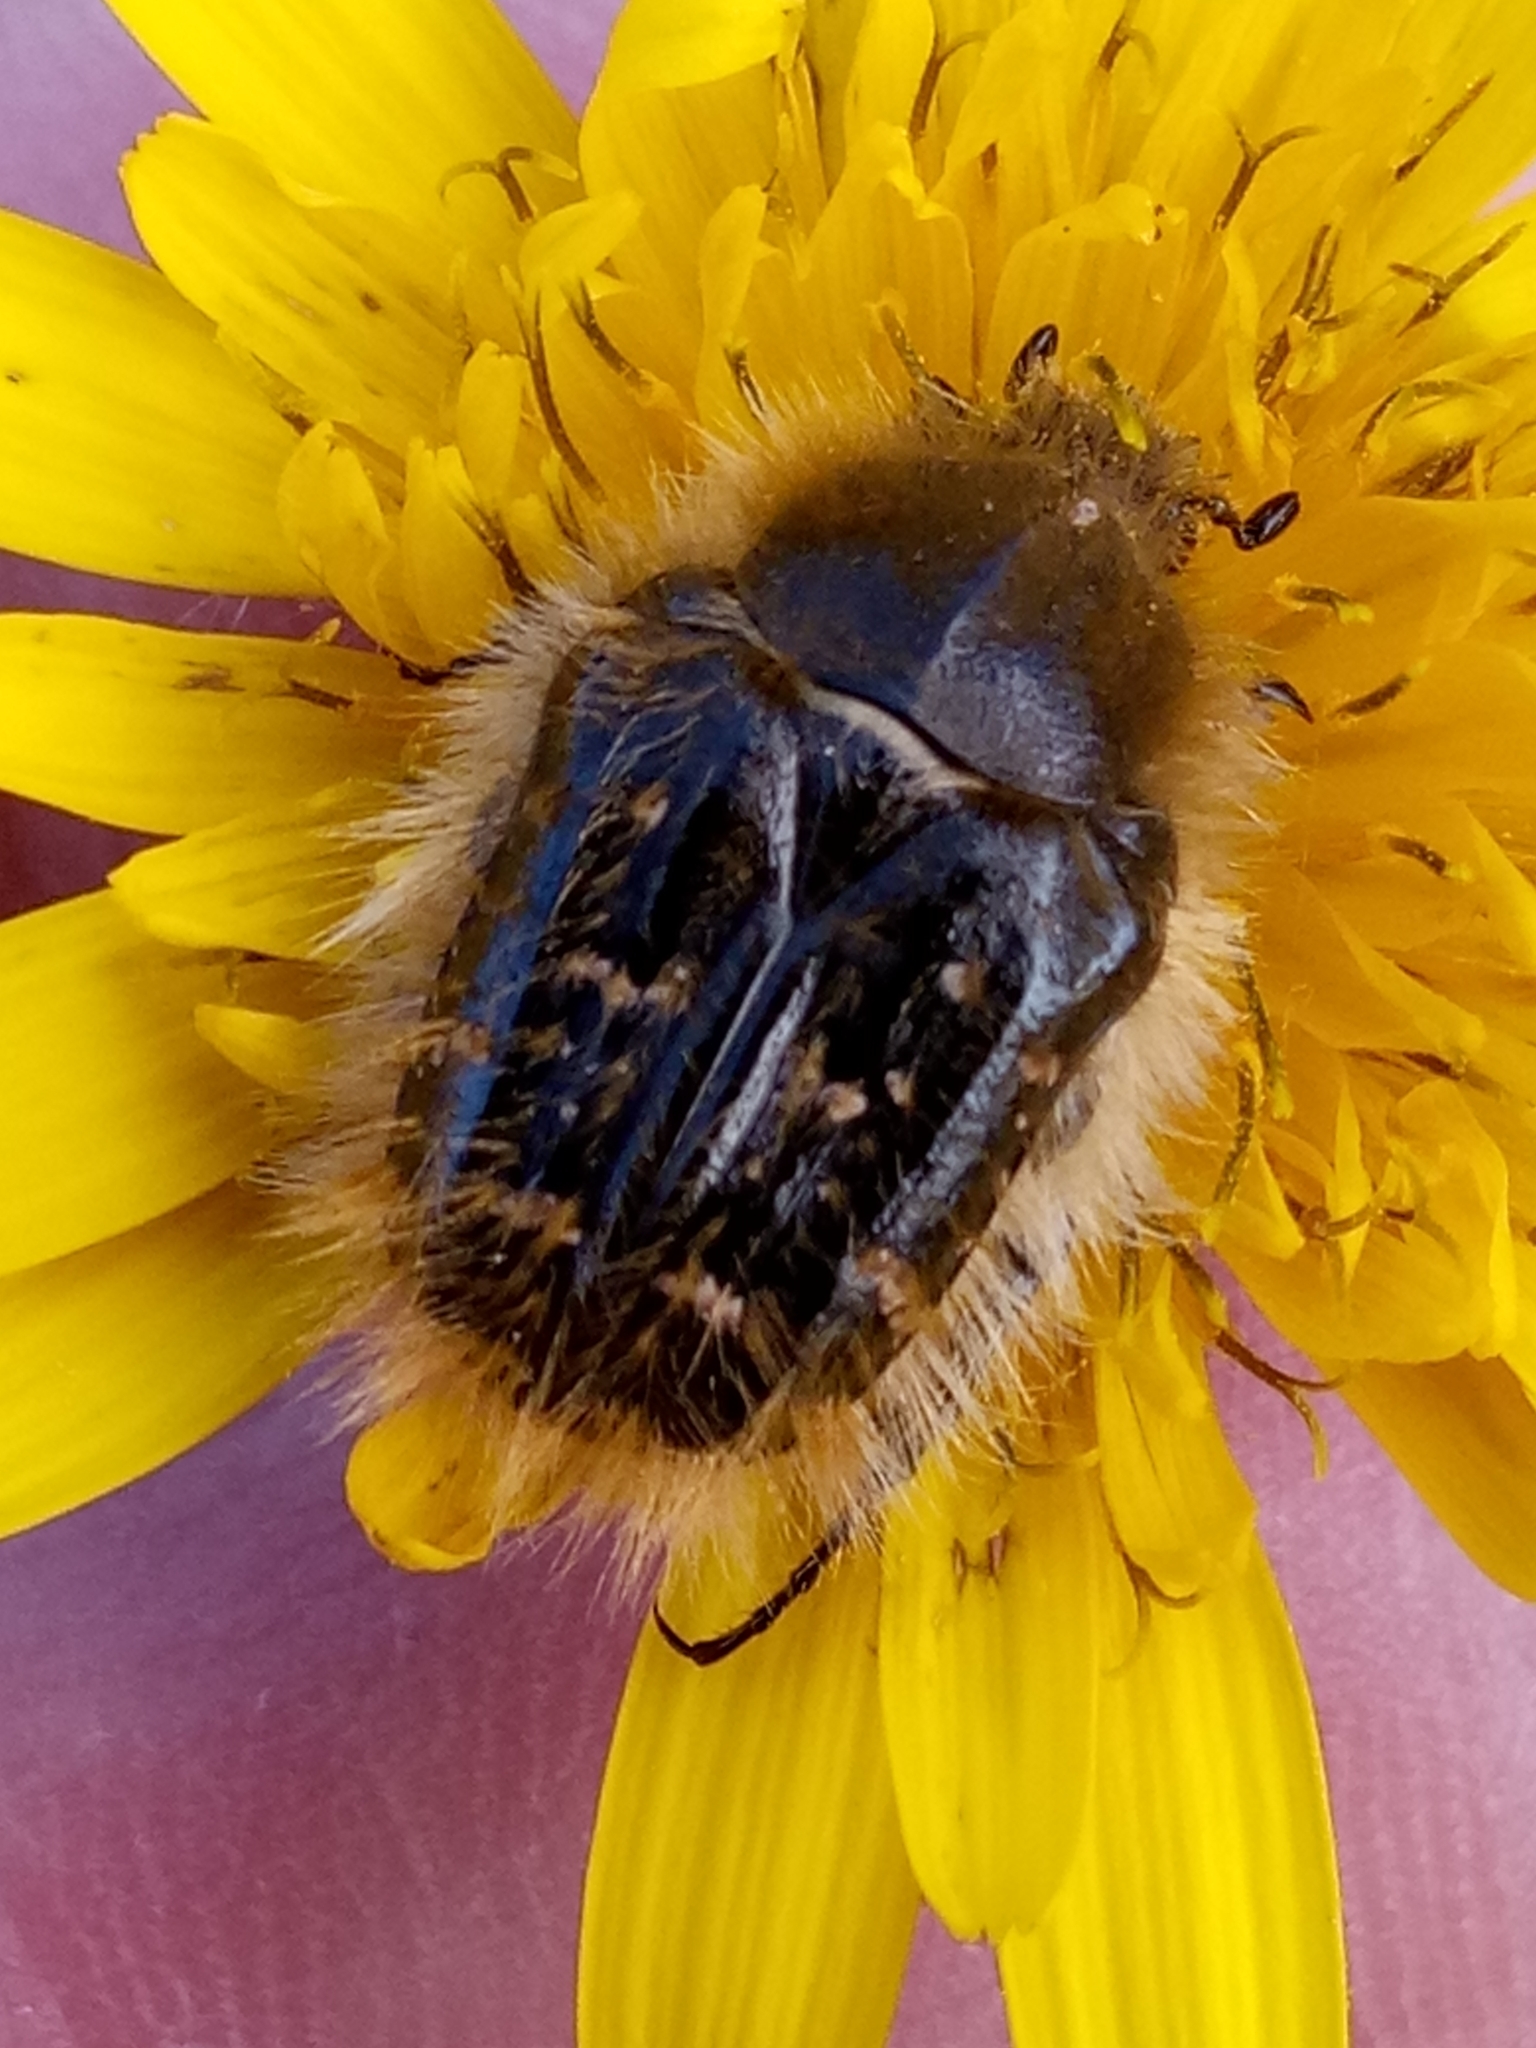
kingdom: Animalia
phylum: Arthropoda
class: Insecta
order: Coleoptera
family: Scarabaeidae
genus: Tropinota
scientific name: Tropinota squalida
